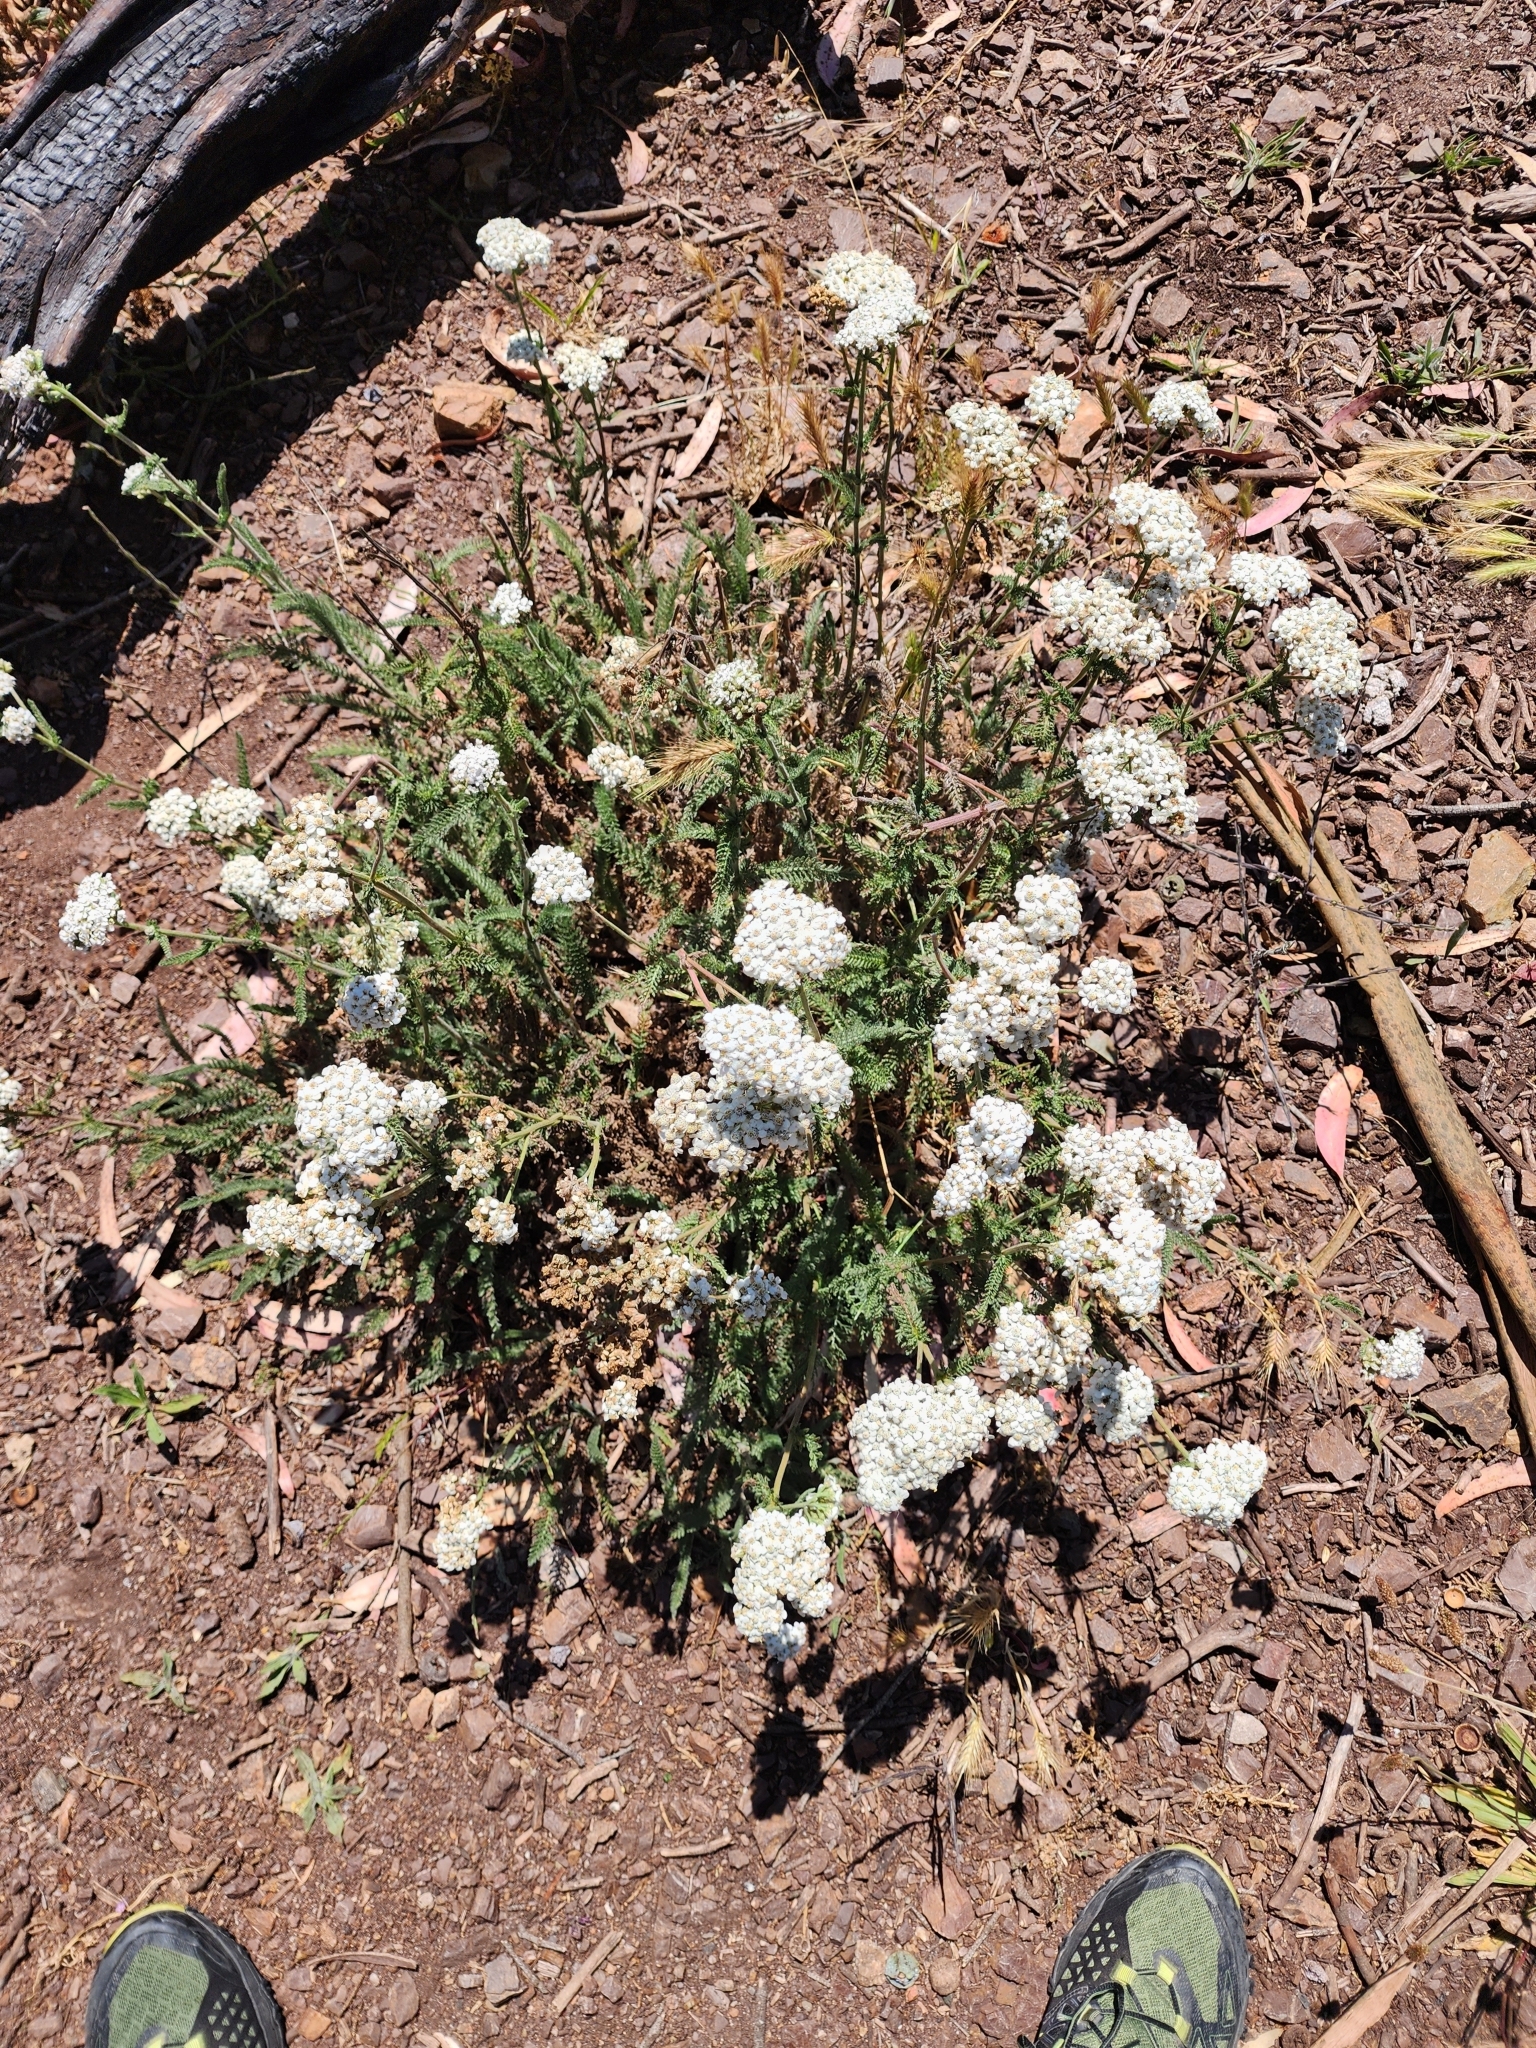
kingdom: Plantae
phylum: Tracheophyta
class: Magnoliopsida
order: Asterales
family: Asteraceae
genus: Achillea
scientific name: Achillea millefolium
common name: Yarrow
